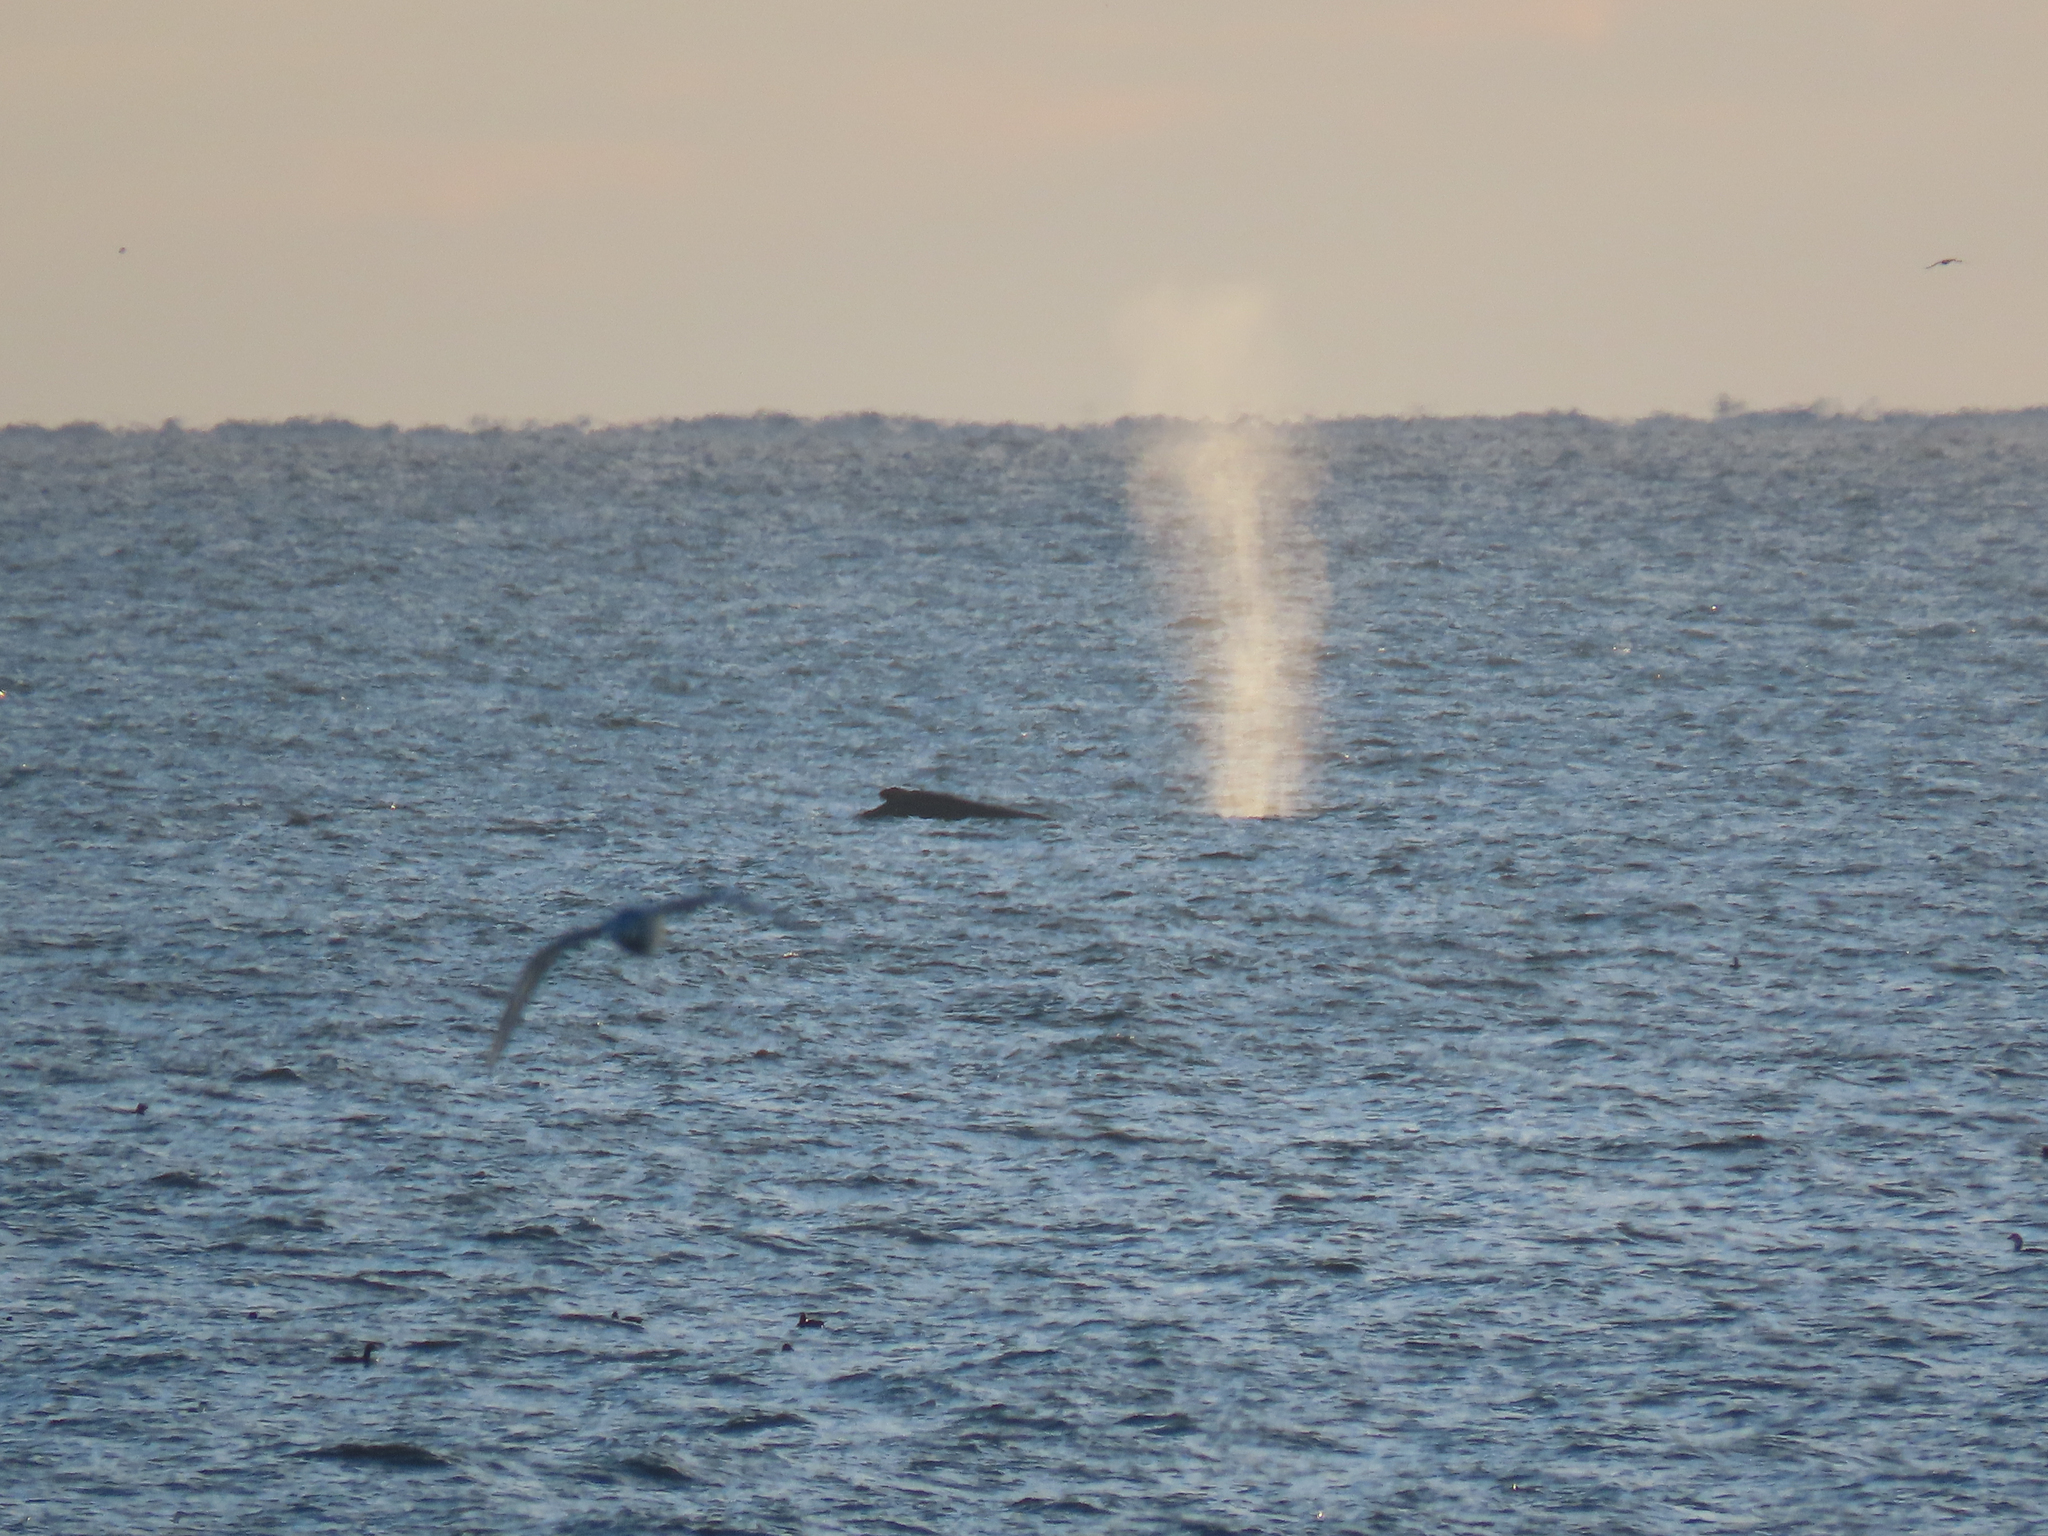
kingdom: Animalia
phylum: Chordata
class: Mammalia
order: Cetacea
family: Balaenopteridae
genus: Megaptera
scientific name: Megaptera novaeangliae
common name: Humpback whale
